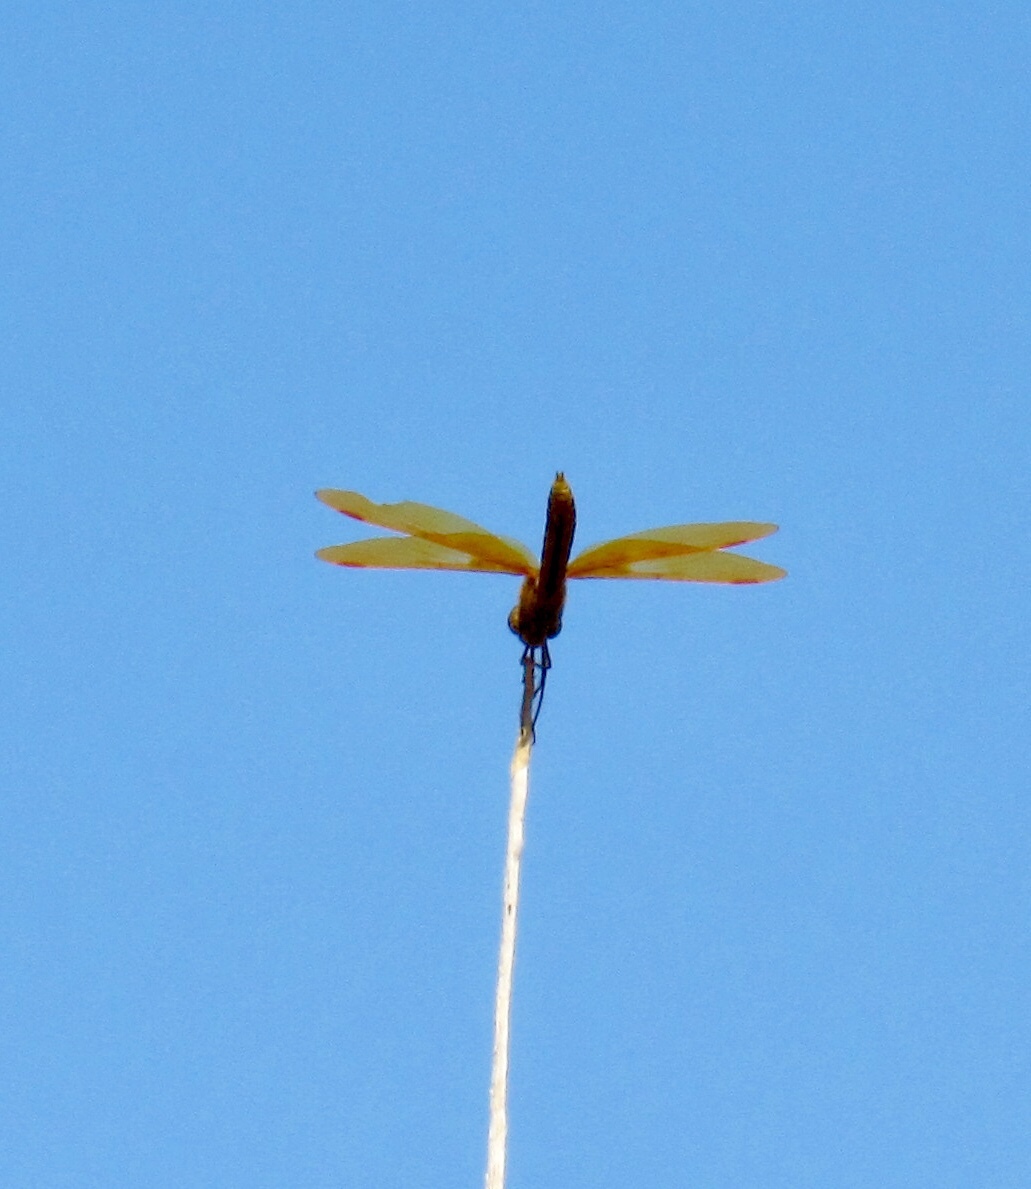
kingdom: Animalia
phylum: Arthropoda
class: Insecta
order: Odonata
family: Libellulidae
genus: Perithemis
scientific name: Perithemis intensa
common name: Mexican amberwing
